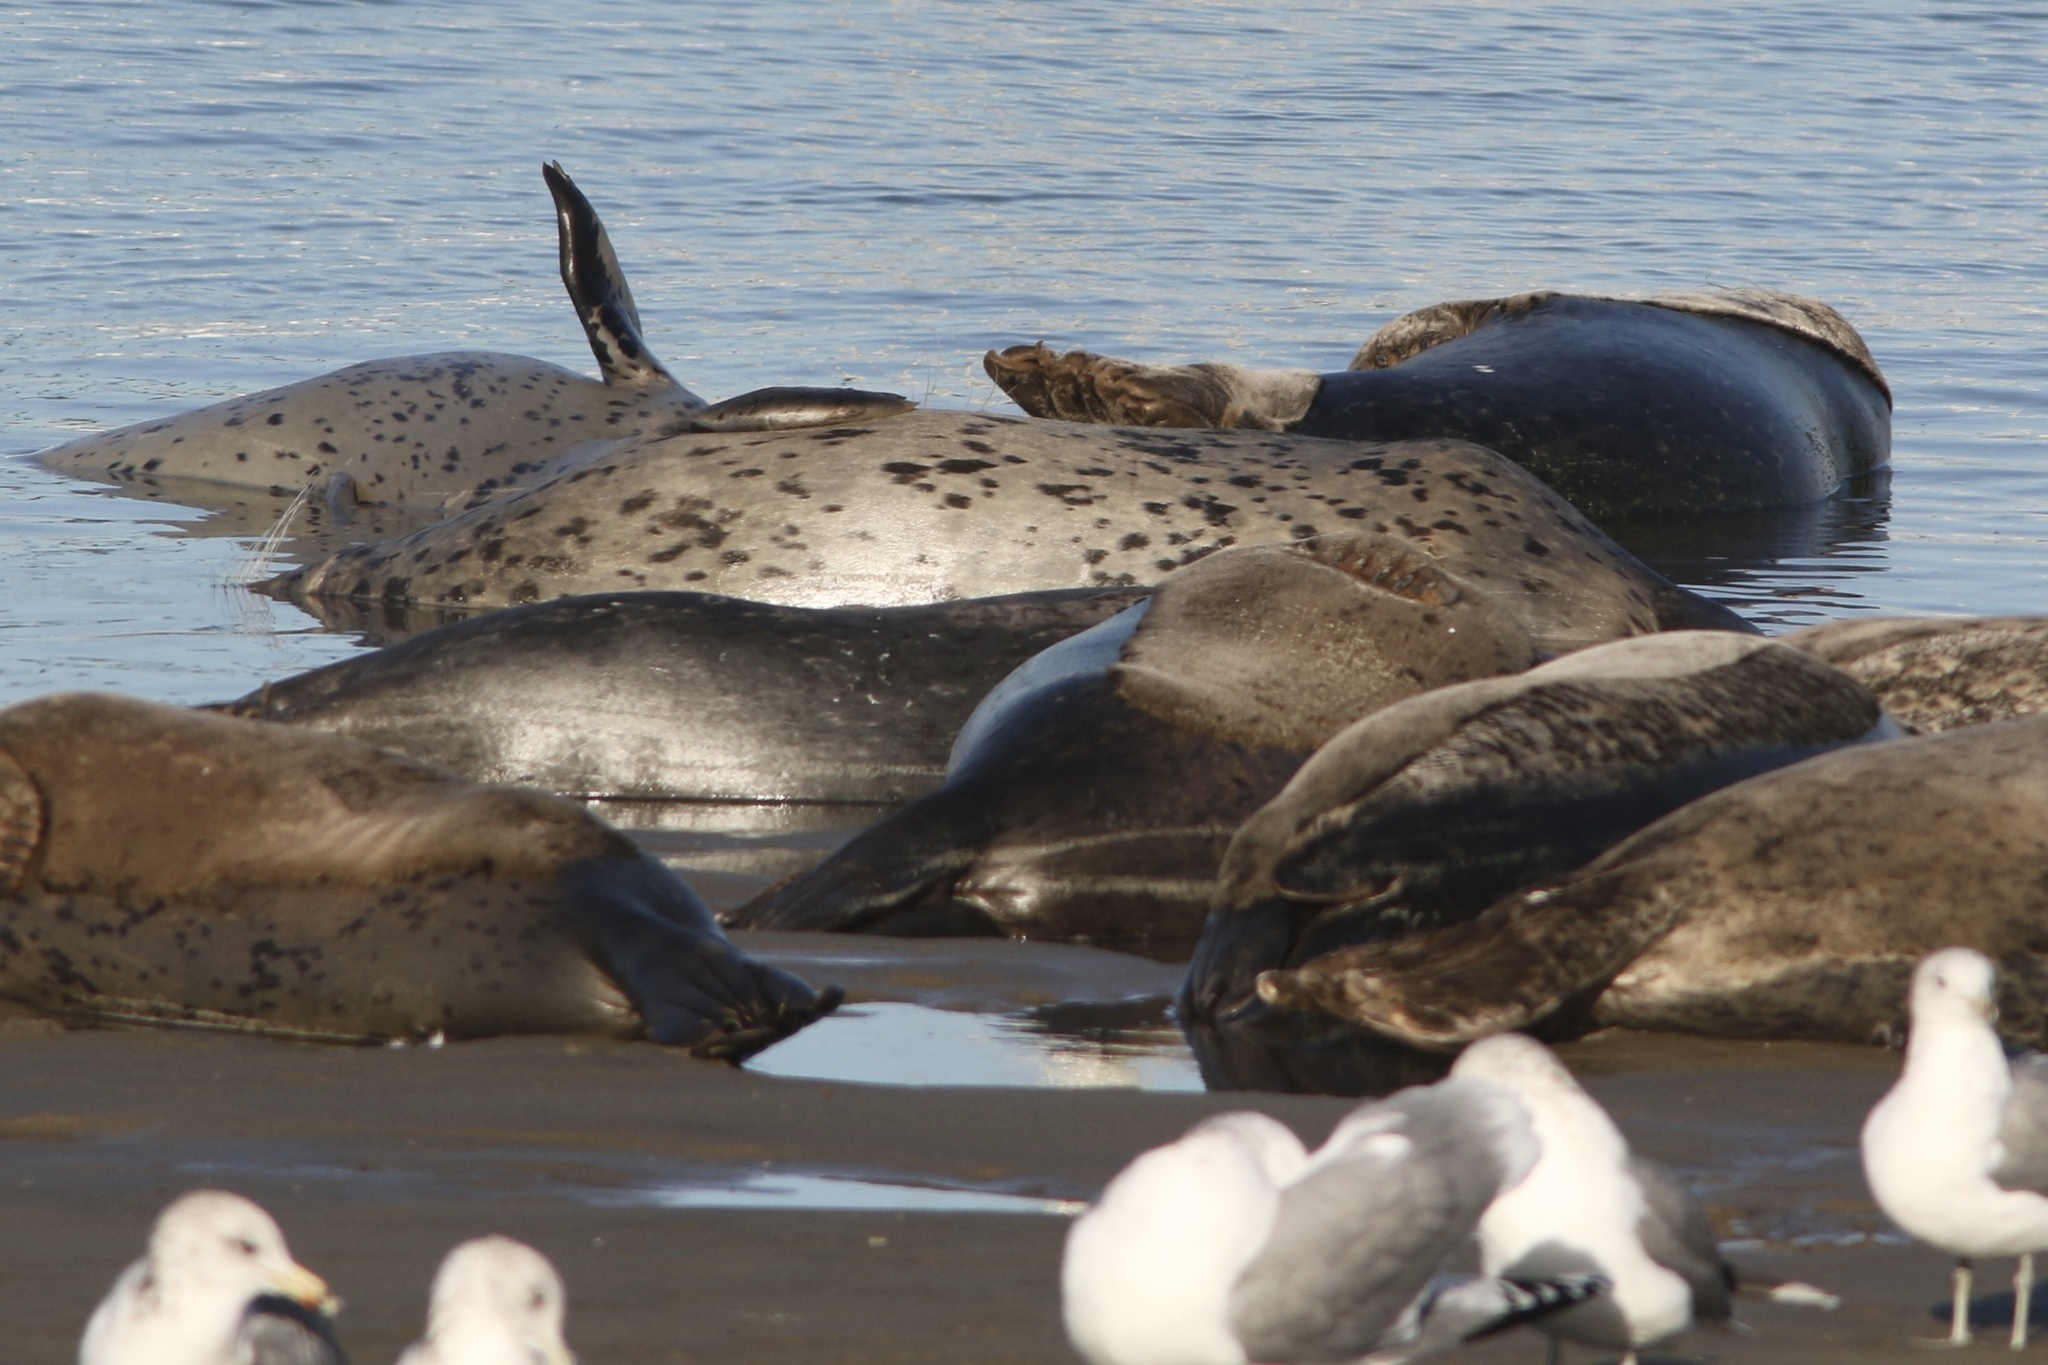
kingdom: Animalia
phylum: Chordata
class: Mammalia
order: Carnivora
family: Phocidae
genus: Phoca
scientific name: Phoca vitulina
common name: Harbor seal
